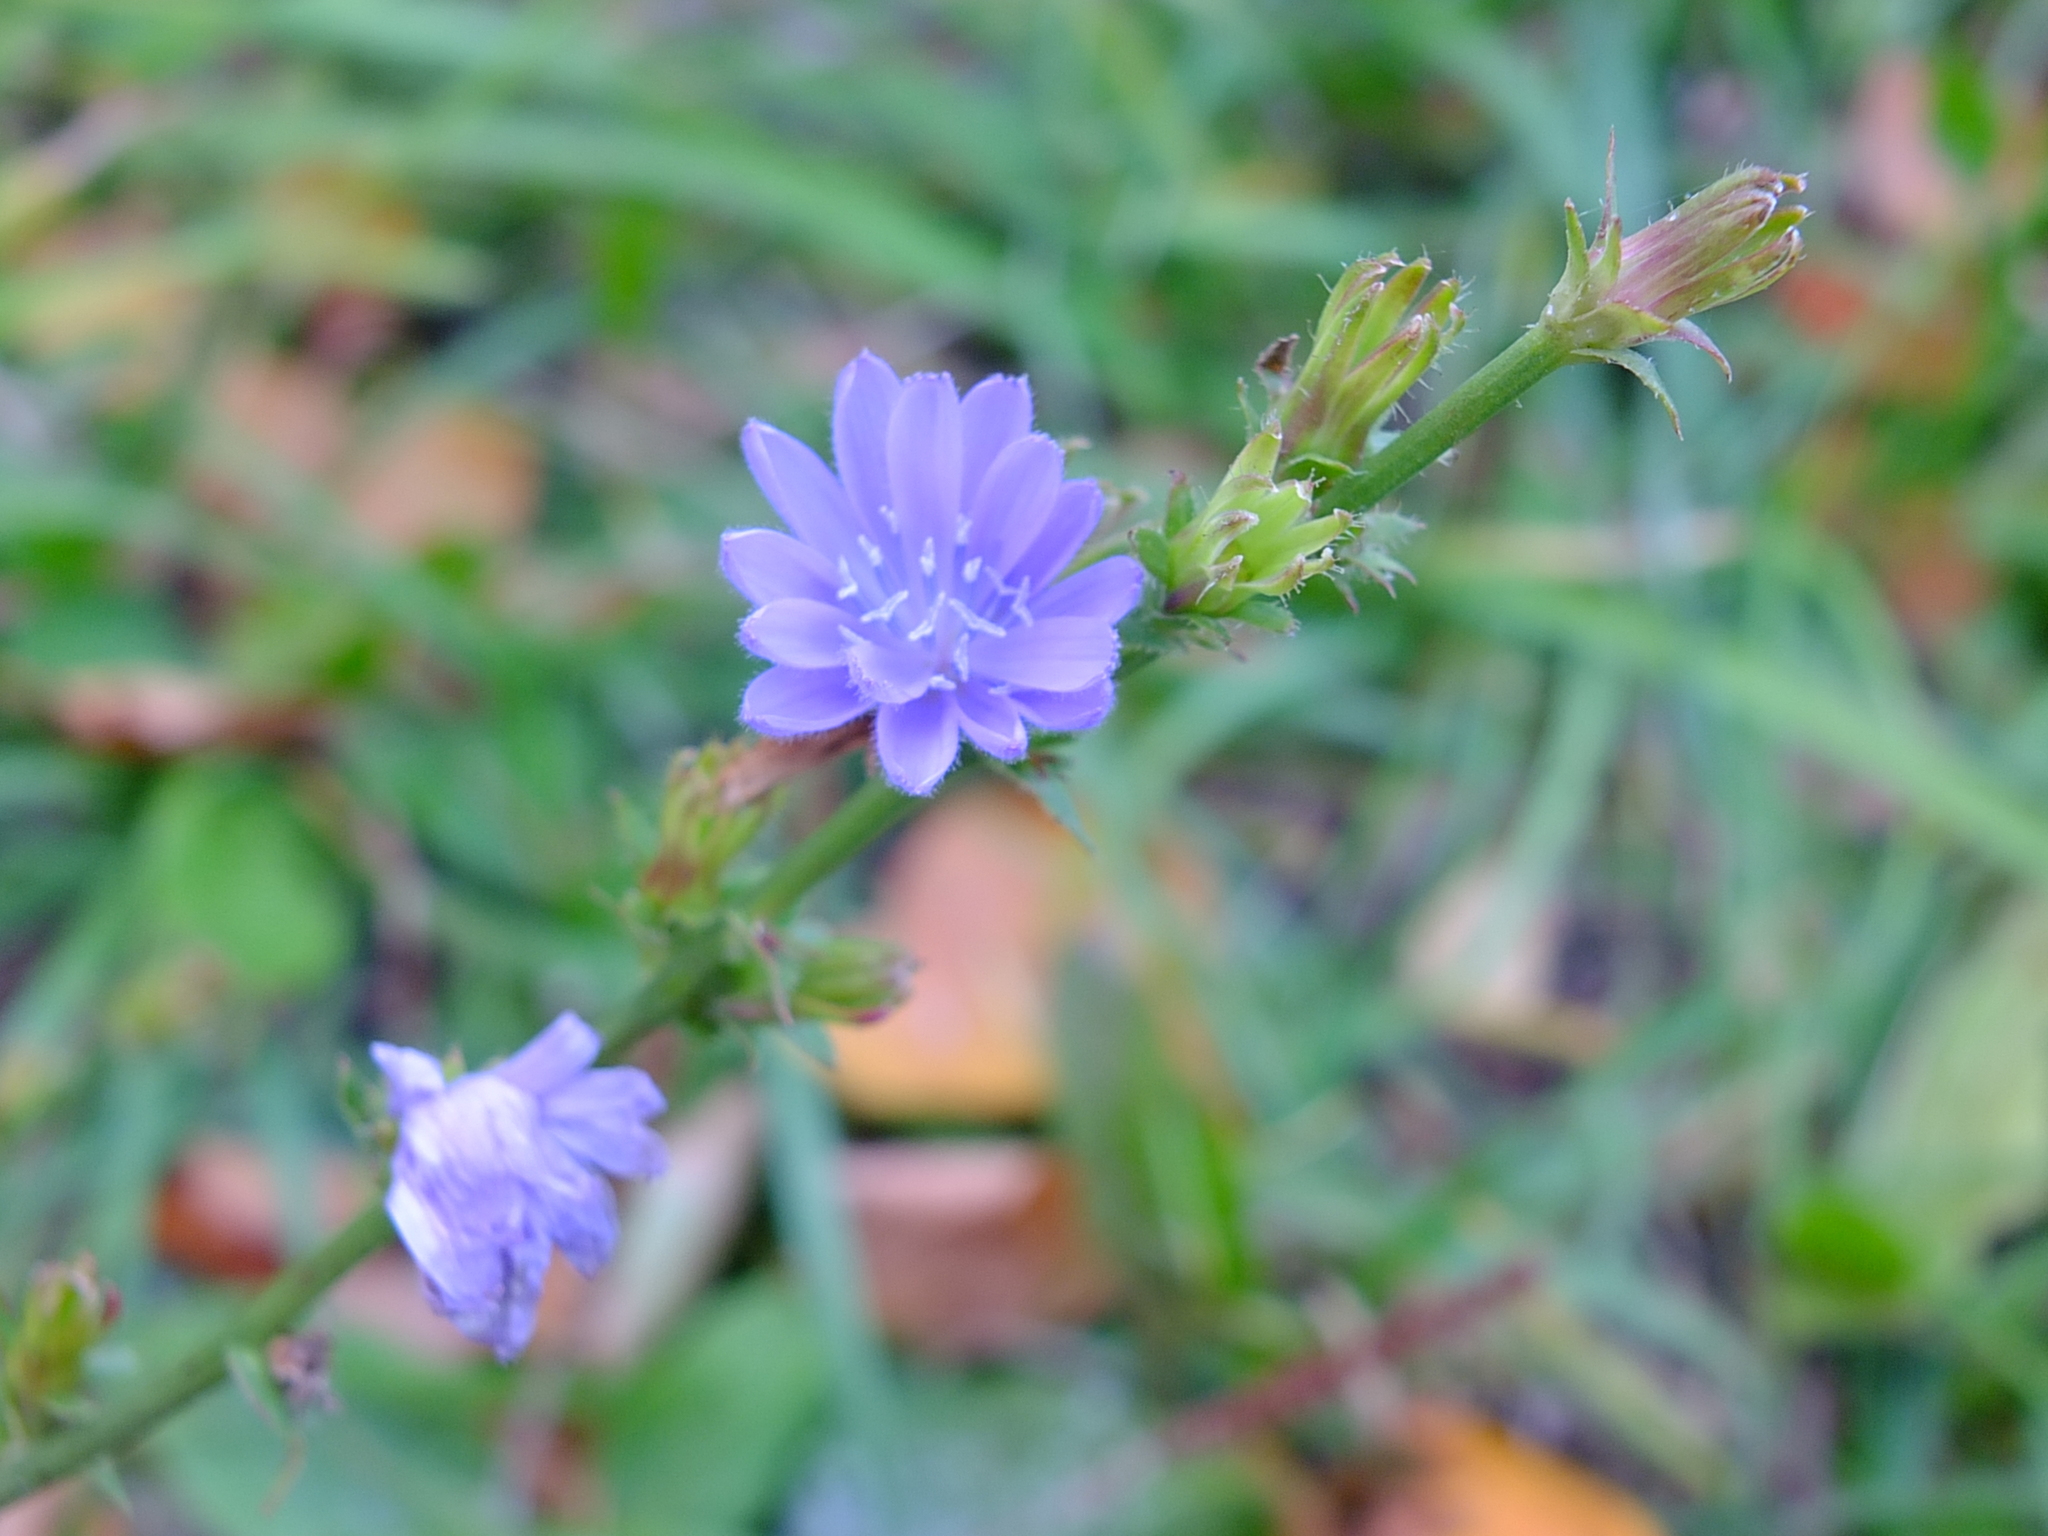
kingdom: Plantae
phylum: Tracheophyta
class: Magnoliopsida
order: Asterales
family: Asteraceae
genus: Cichorium
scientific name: Cichorium intybus
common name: Chicory
